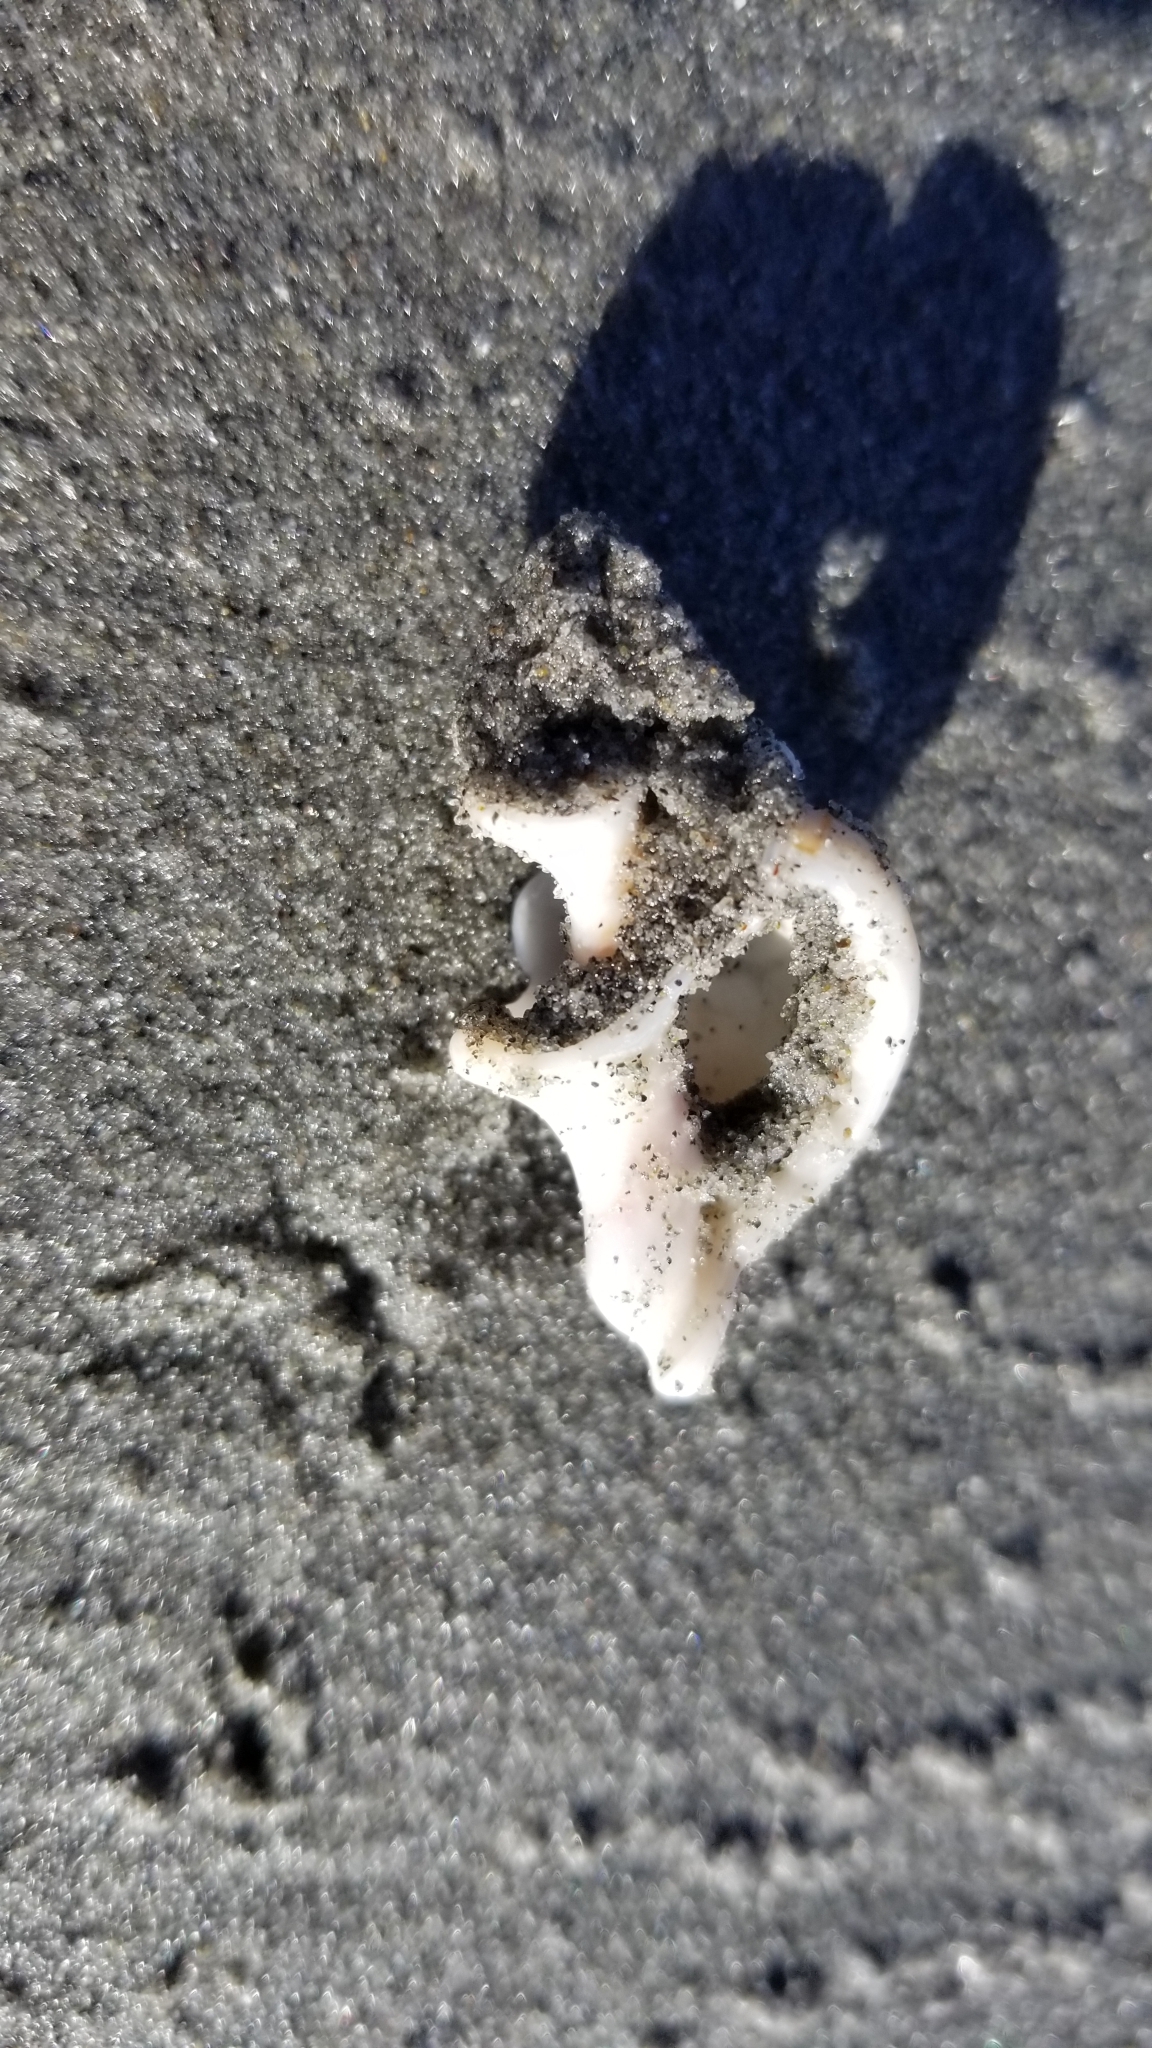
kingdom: Animalia
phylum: Mollusca
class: Gastropoda
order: Littorinimorpha
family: Cymatiidae
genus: Argobuccinum
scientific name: Argobuccinum pustulosum
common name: Pustular triton
